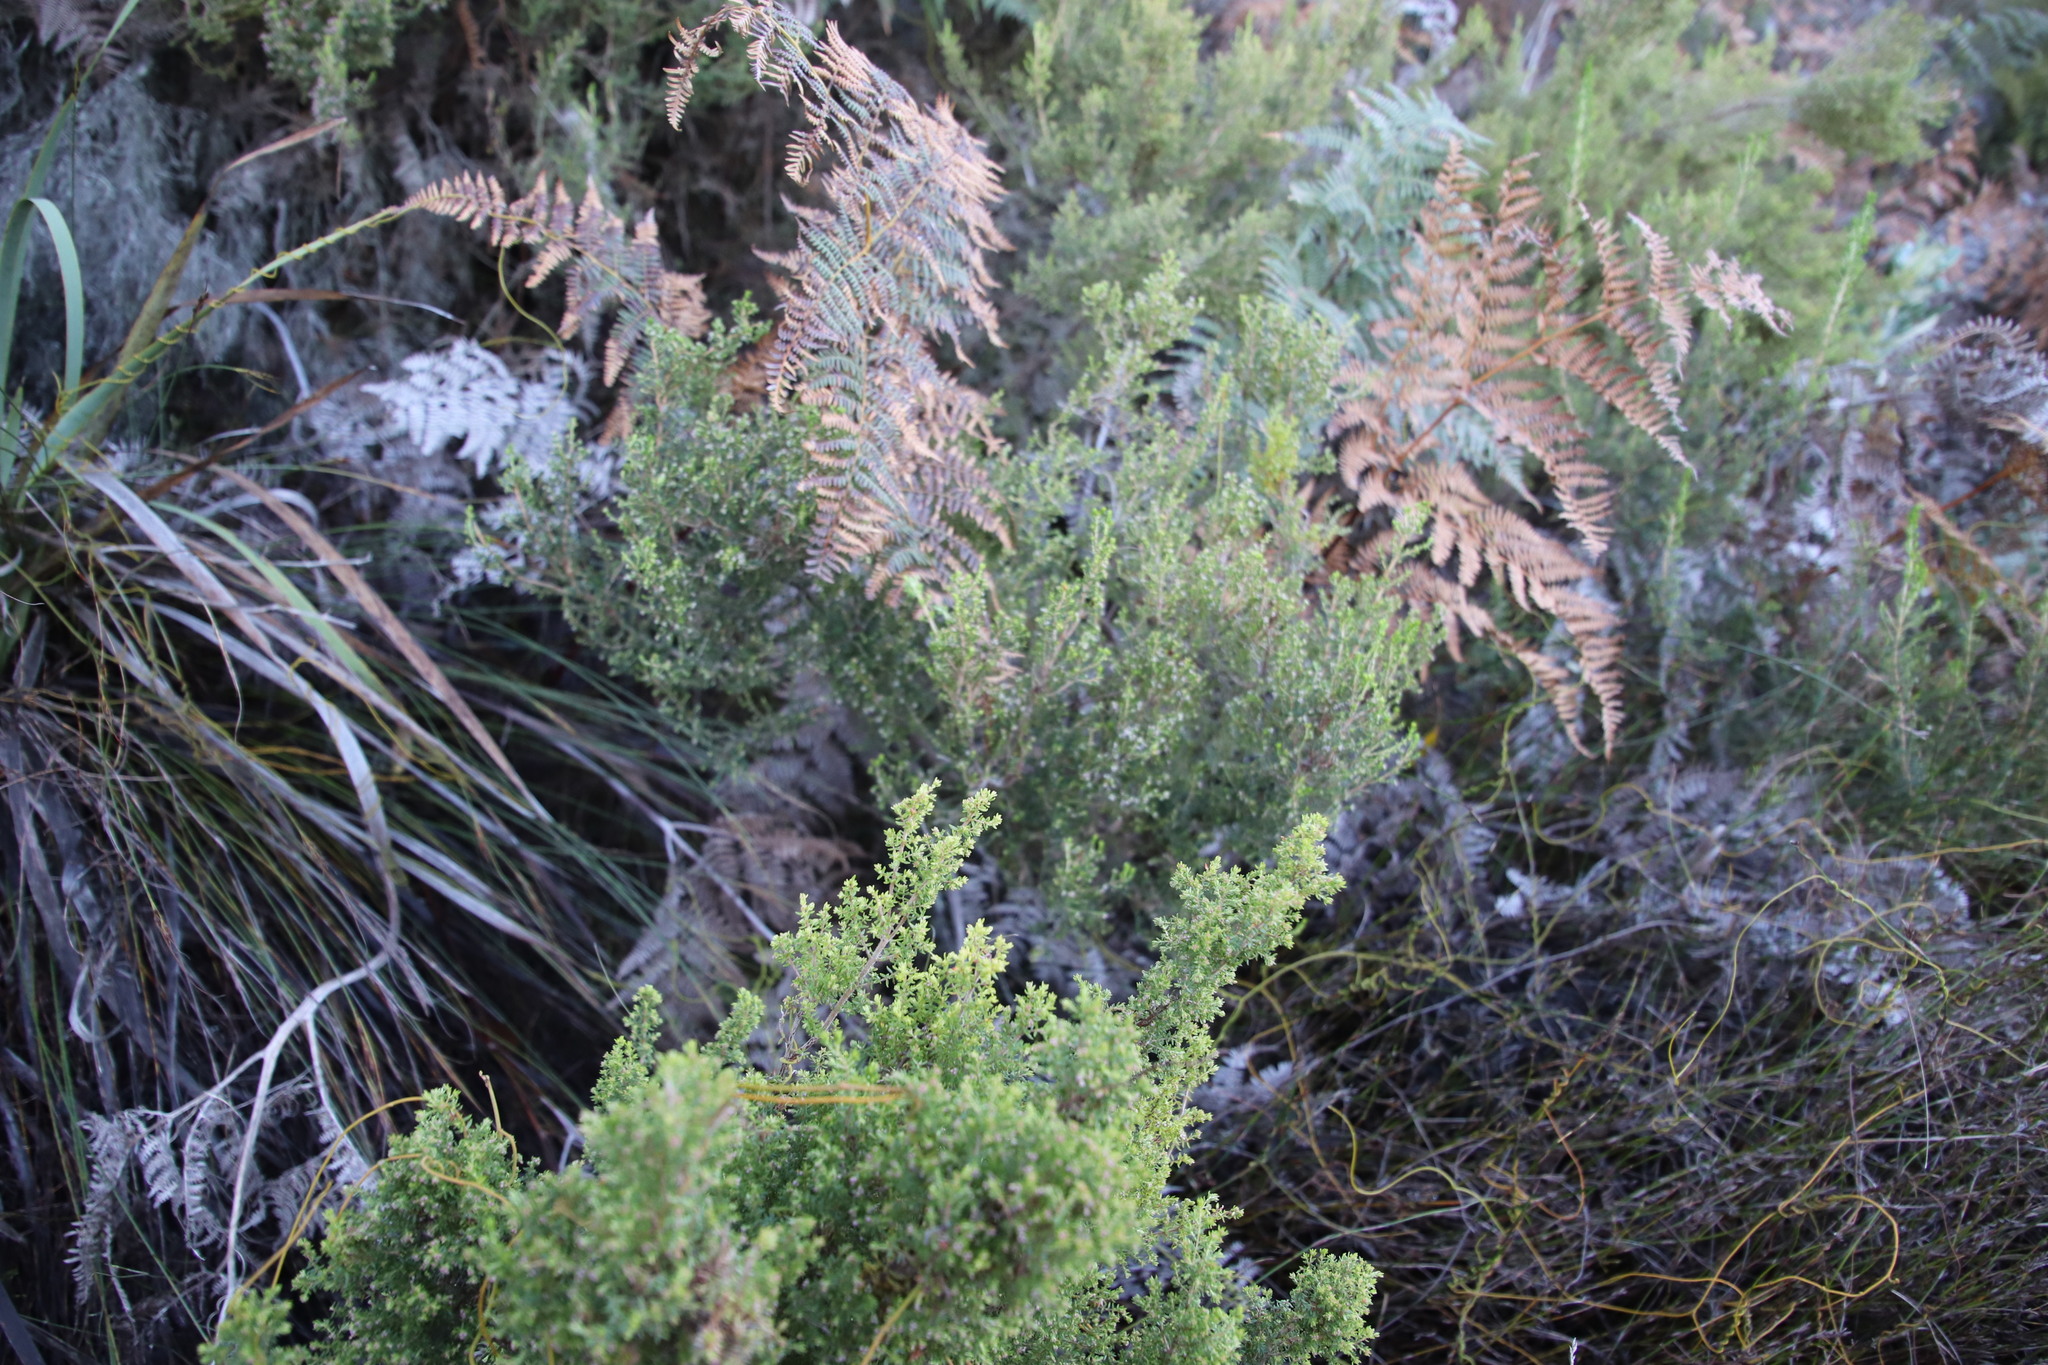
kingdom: Plantae
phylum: Tracheophyta
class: Magnoliopsida
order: Ericales
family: Ericaceae
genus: Erica
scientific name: Erica hispidula
